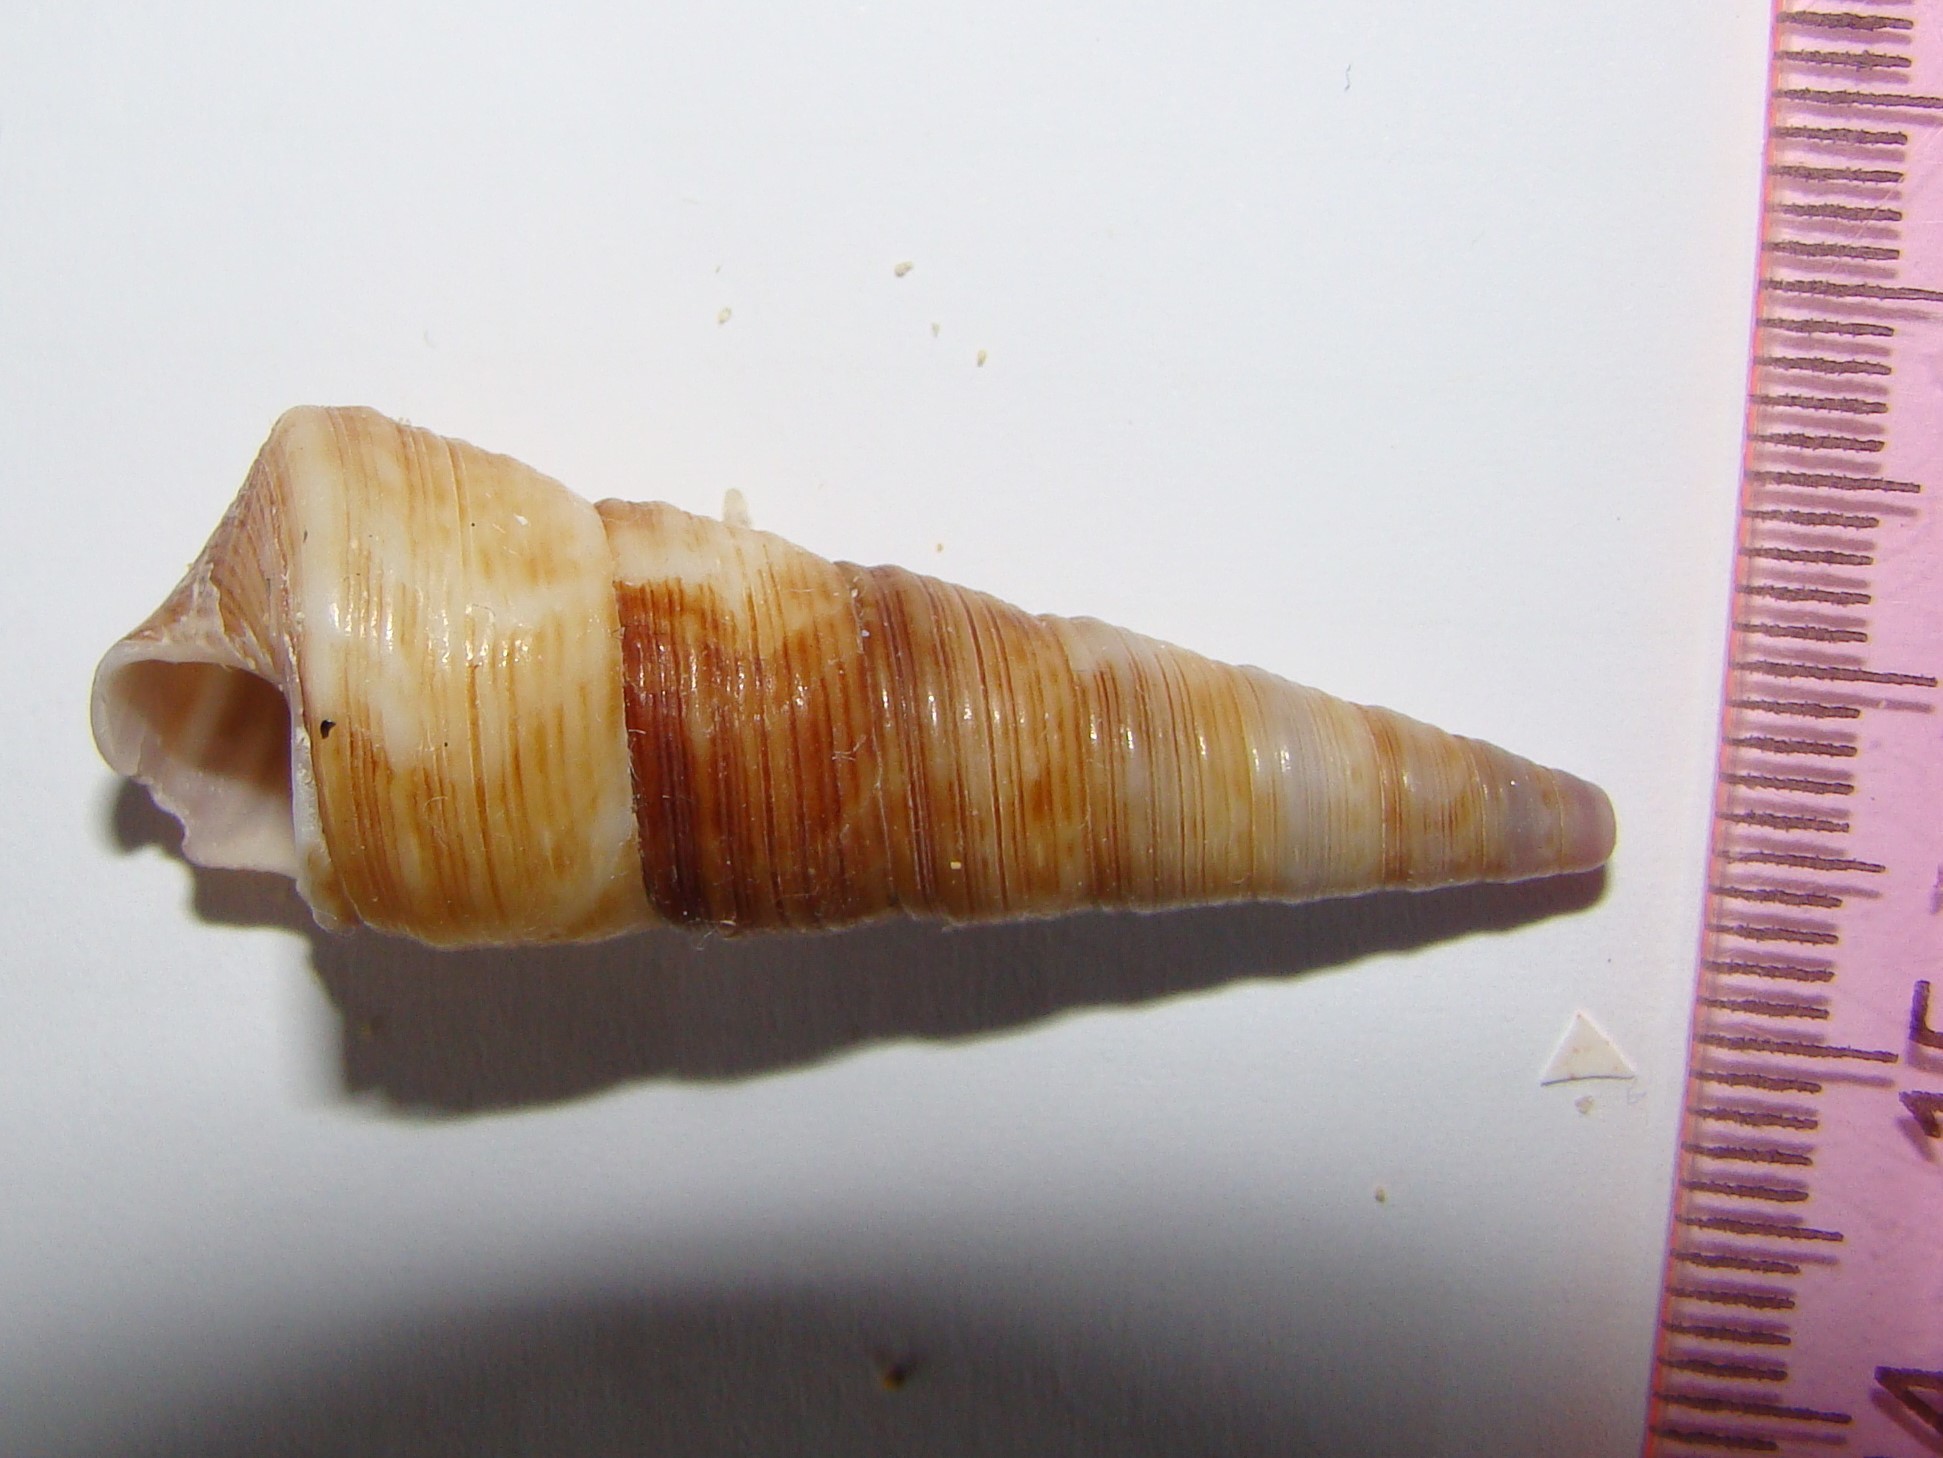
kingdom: Animalia
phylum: Mollusca
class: Gastropoda
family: Turritellidae
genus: Maoricolpus
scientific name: Maoricolpus roseus
